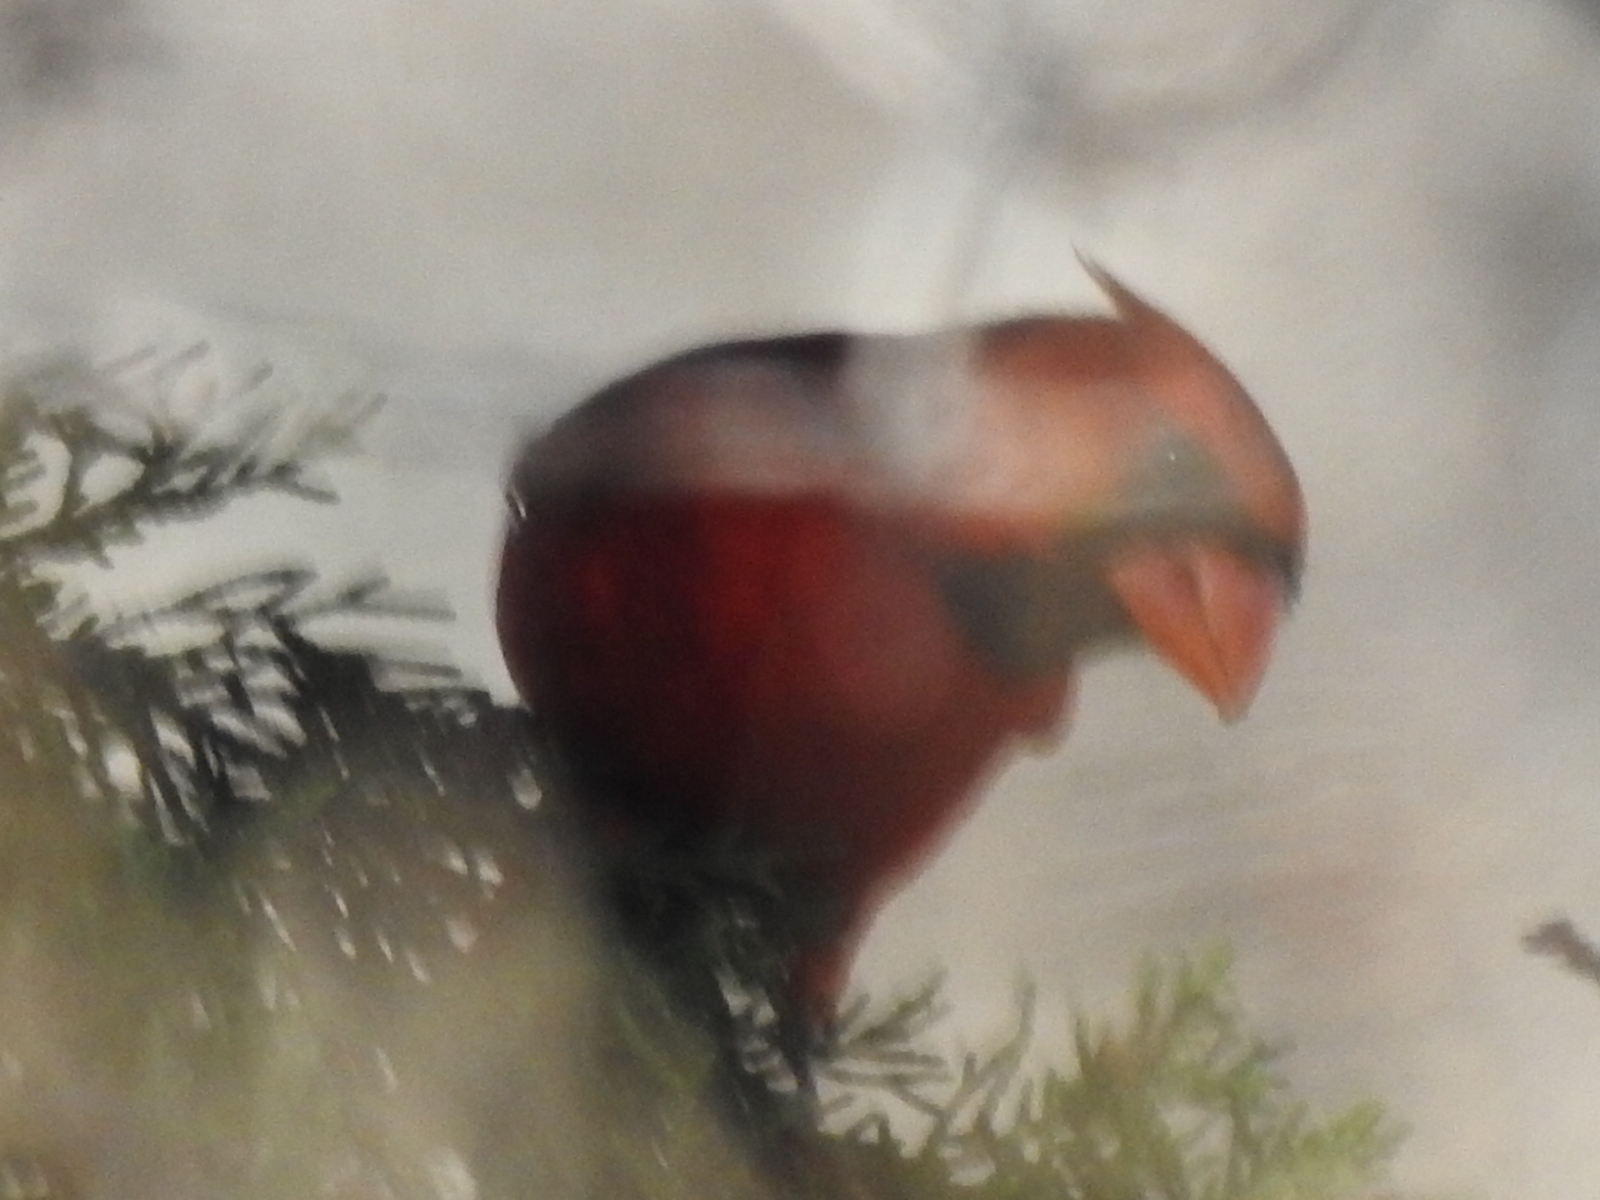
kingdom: Animalia
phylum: Chordata
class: Aves
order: Passeriformes
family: Cardinalidae
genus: Cardinalis
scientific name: Cardinalis cardinalis
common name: Northern cardinal
